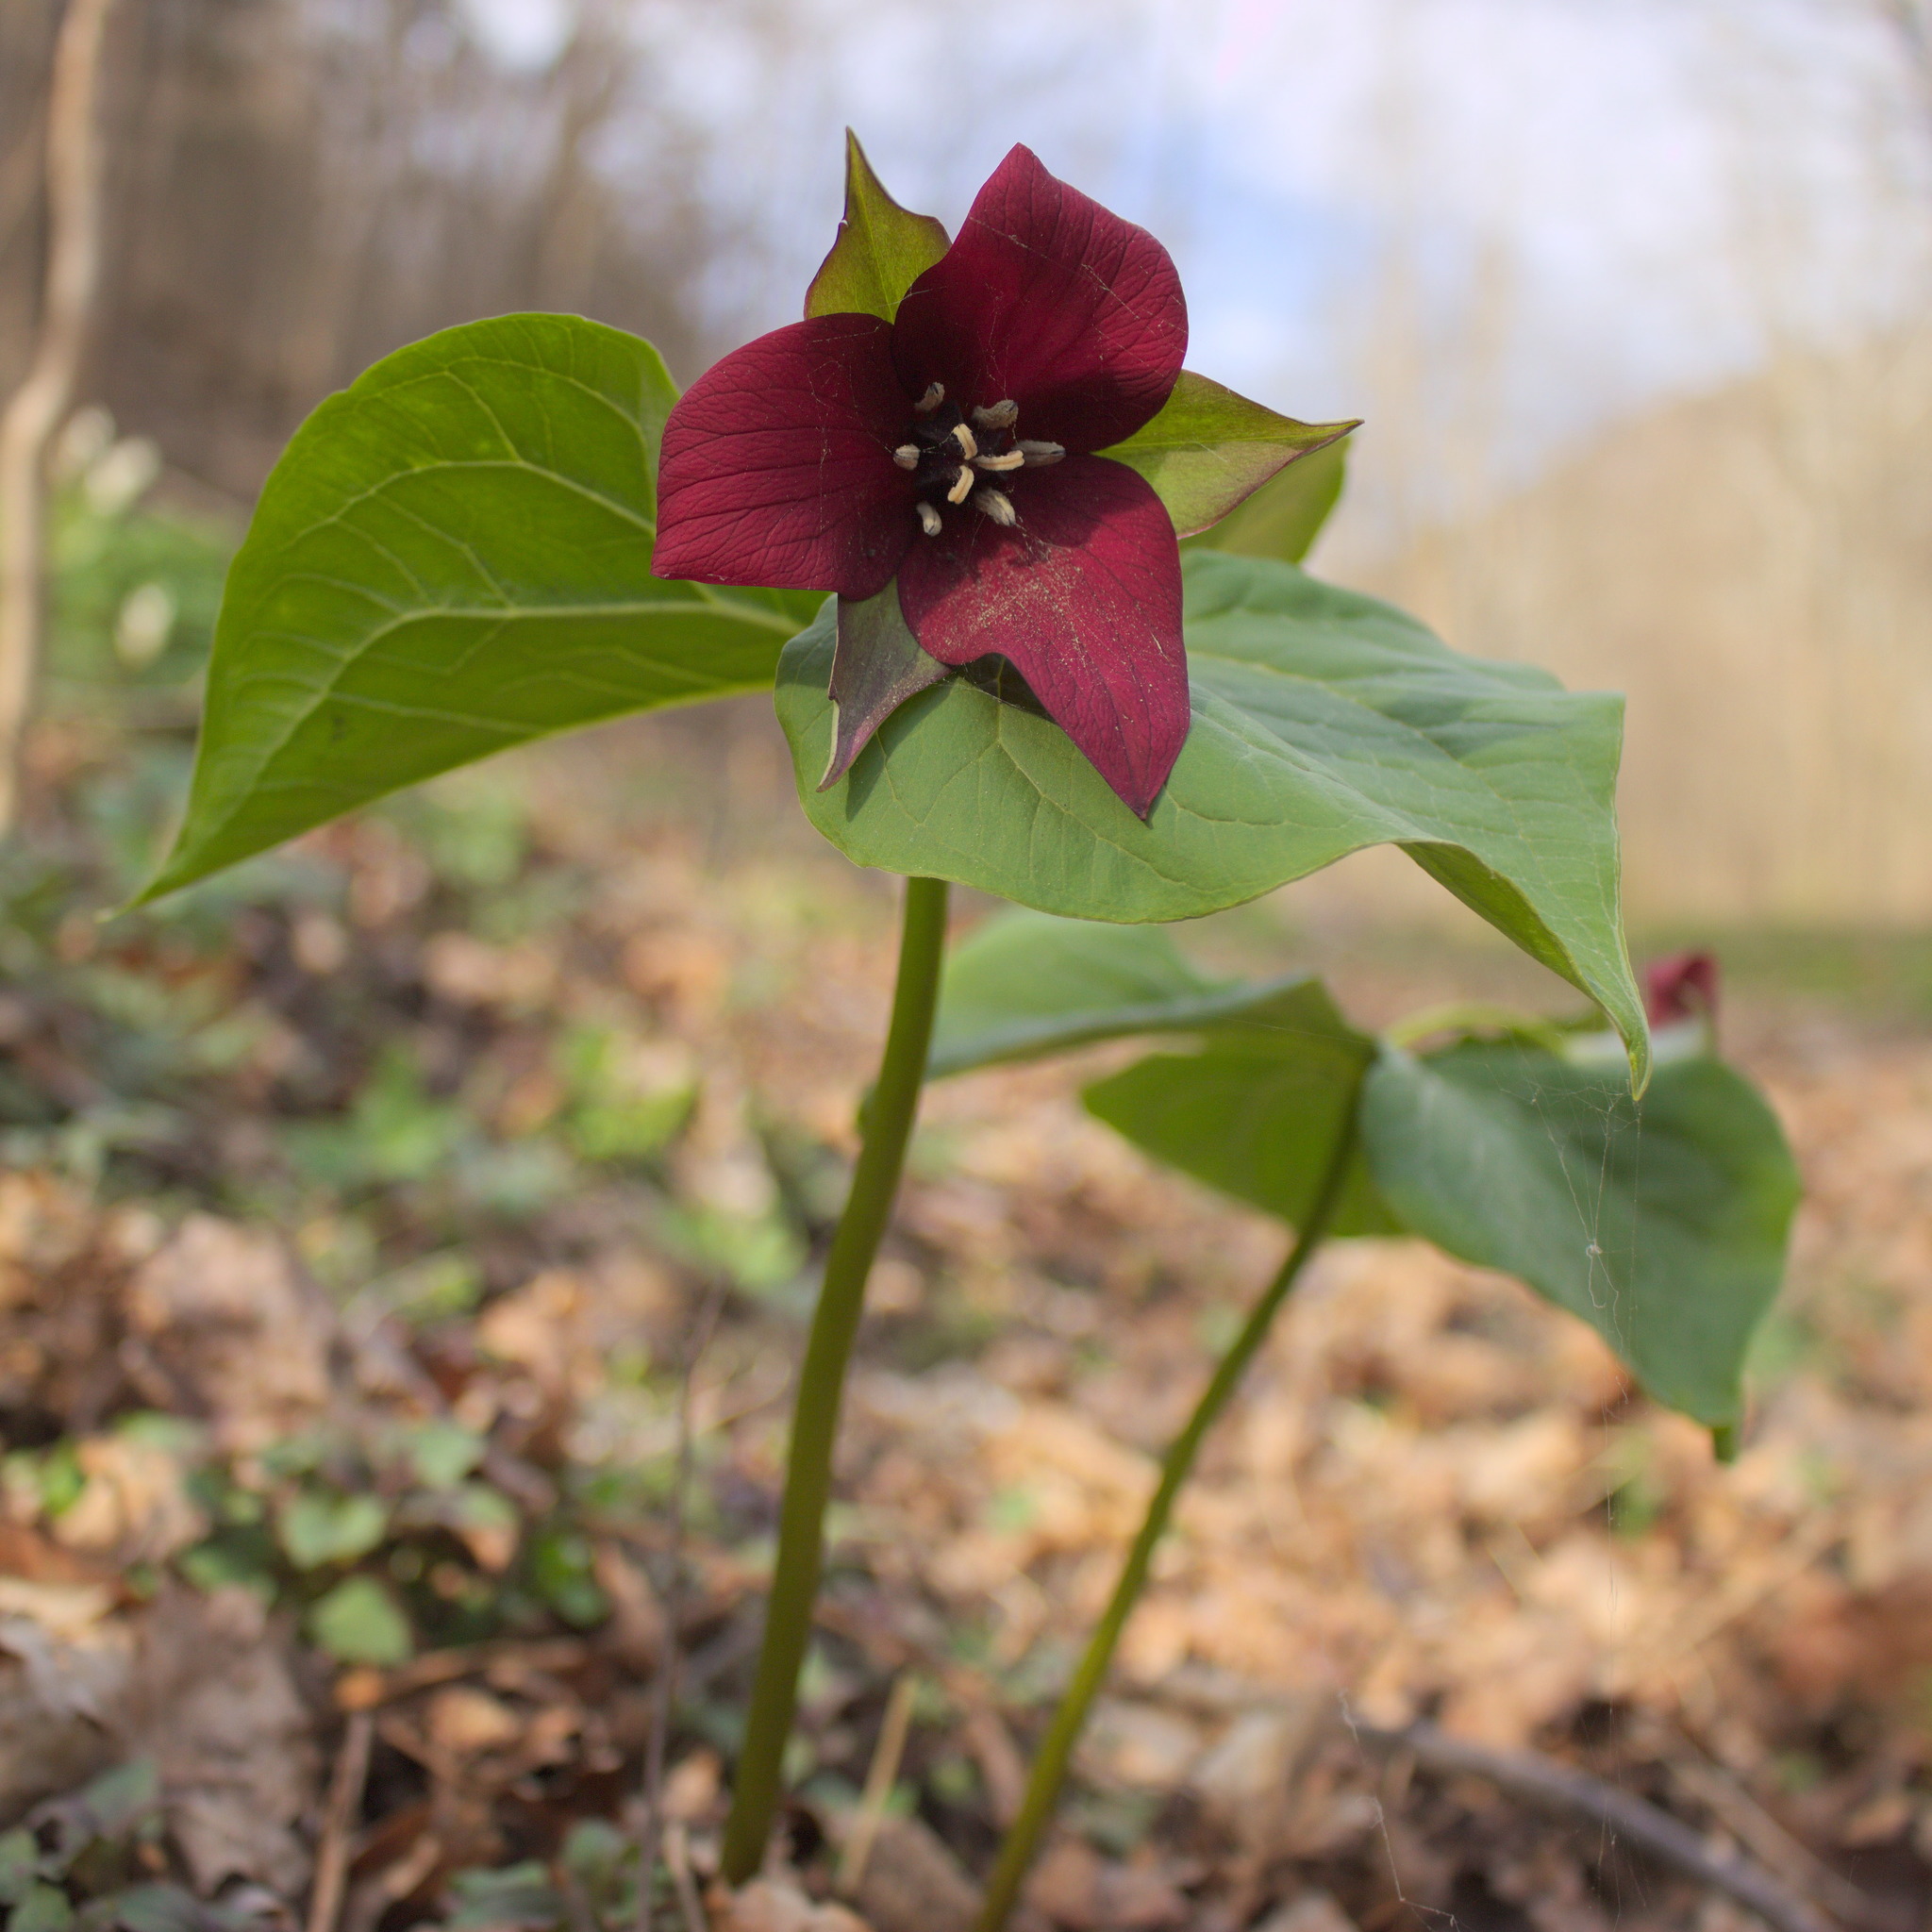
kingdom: Plantae
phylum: Tracheophyta
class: Liliopsida
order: Liliales
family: Melanthiaceae
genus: Trillium
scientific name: Trillium erectum
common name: Purple trillium
